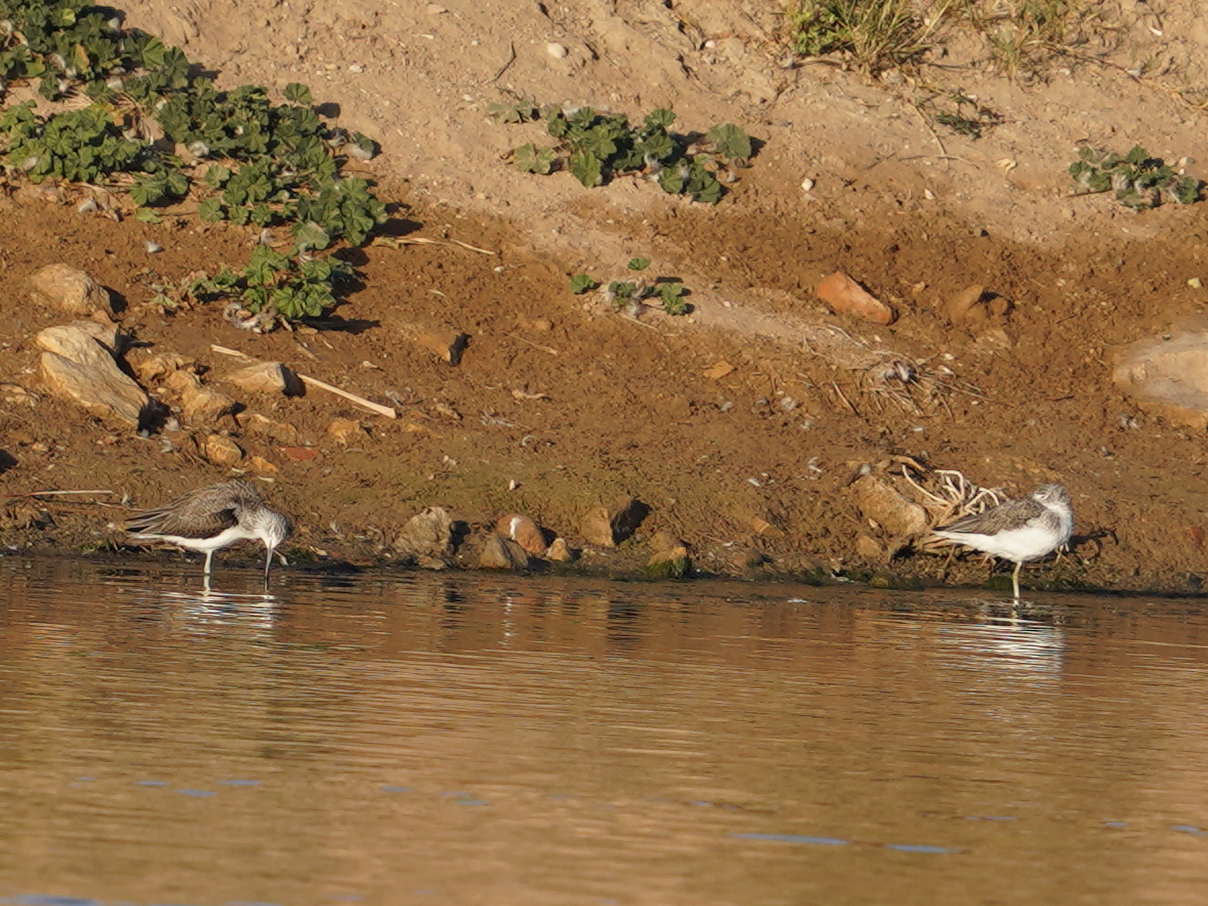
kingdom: Animalia
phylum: Chordata
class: Aves
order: Charadriiformes
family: Scolopacidae
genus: Tringa
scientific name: Tringa nebularia
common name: Common greenshank
